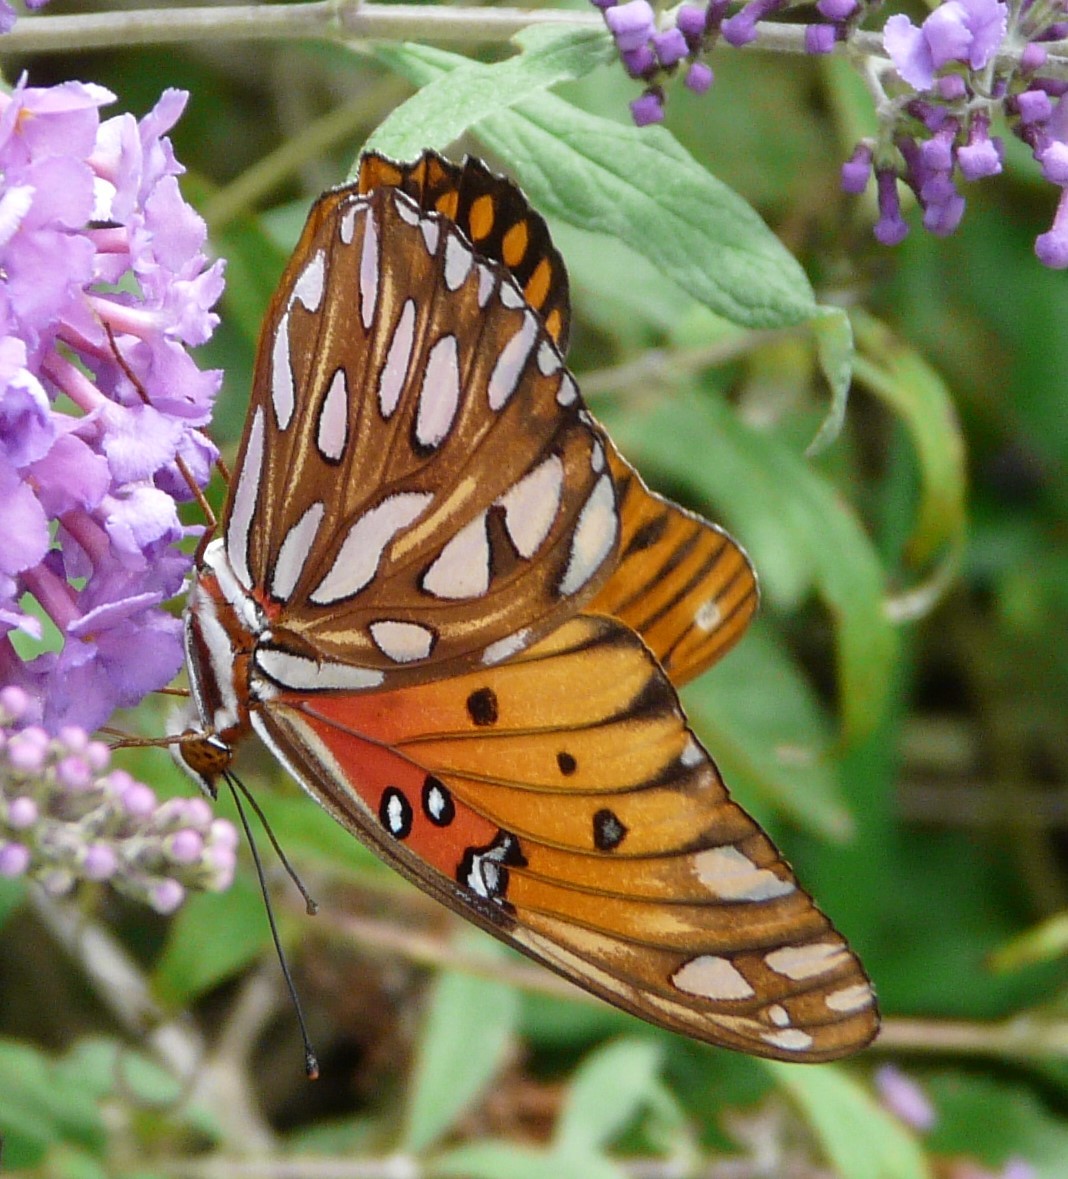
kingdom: Animalia
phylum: Arthropoda
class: Insecta
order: Lepidoptera
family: Nymphalidae
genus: Dione
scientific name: Dione vanillae
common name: Gulf fritillary
